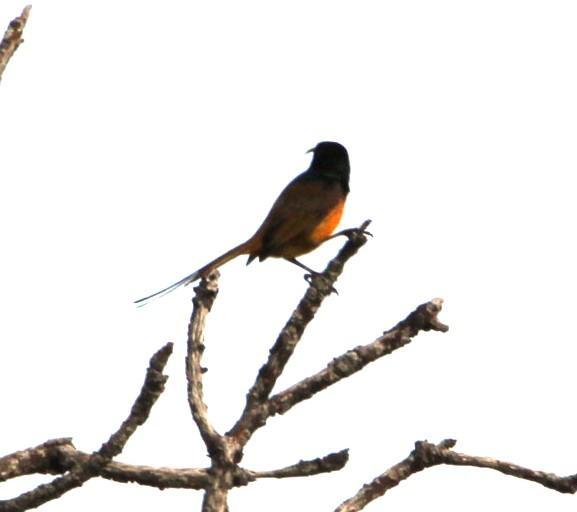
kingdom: Animalia
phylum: Chordata
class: Aves
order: Passeriformes
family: Nectariniidae
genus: Anthobaphes
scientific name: Anthobaphes violacea
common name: Orange-breasted sunbird
